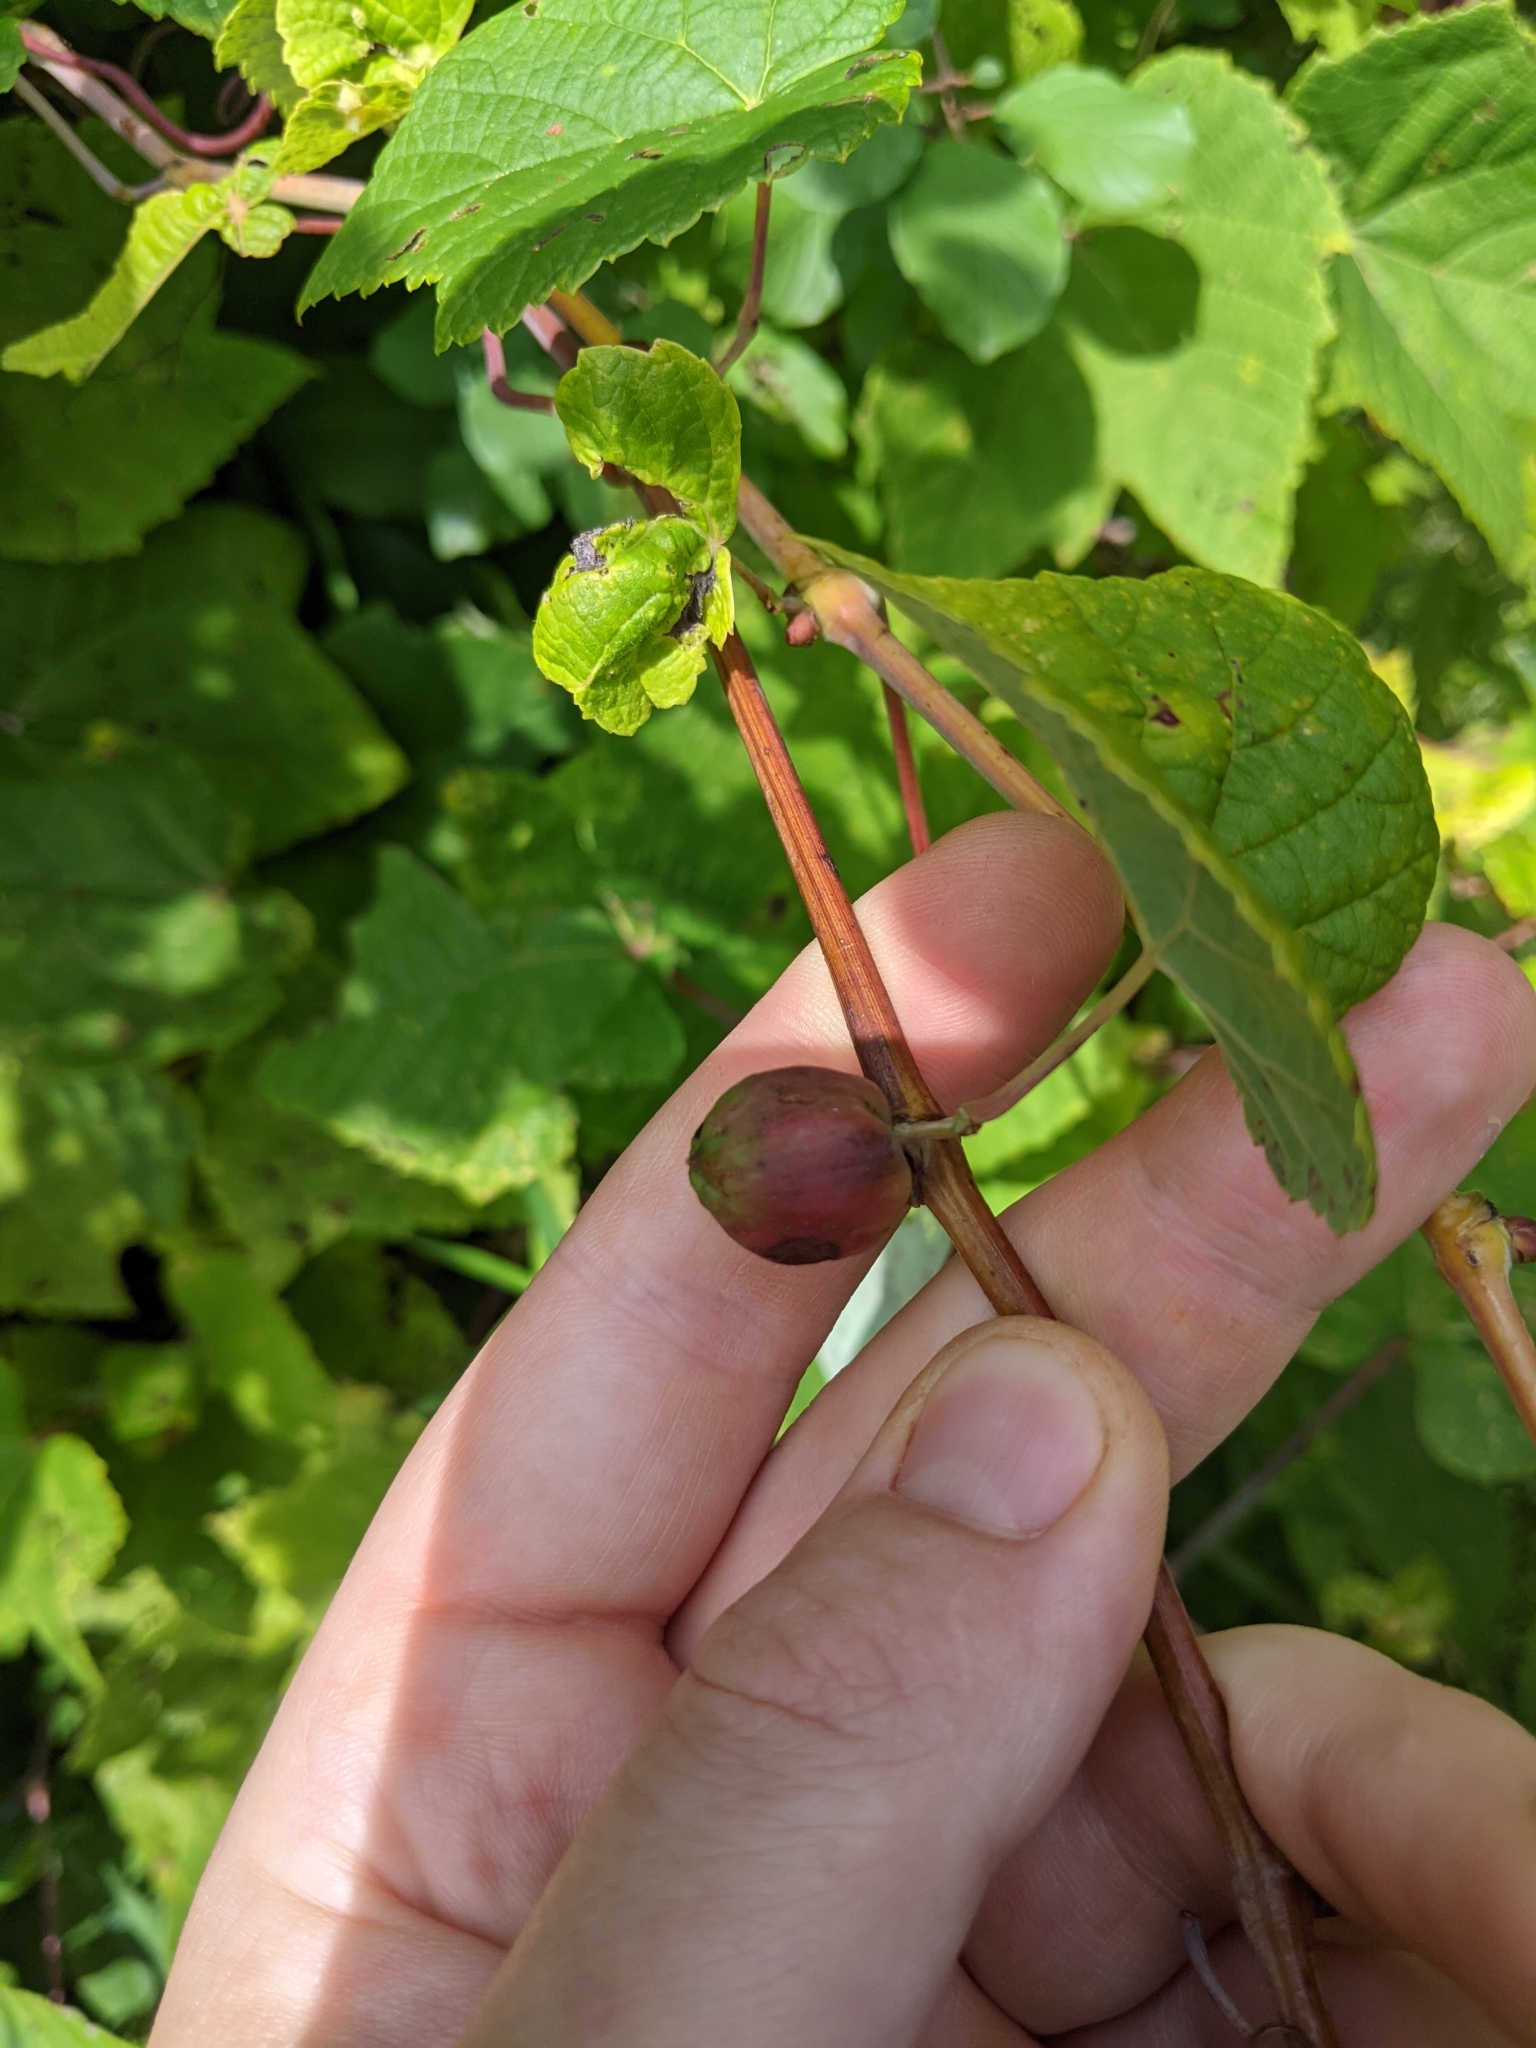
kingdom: Animalia
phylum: Arthropoda
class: Insecta
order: Diptera
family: Cecidomyiidae
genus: Ampelomyia
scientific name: Ampelomyia vitispomum
